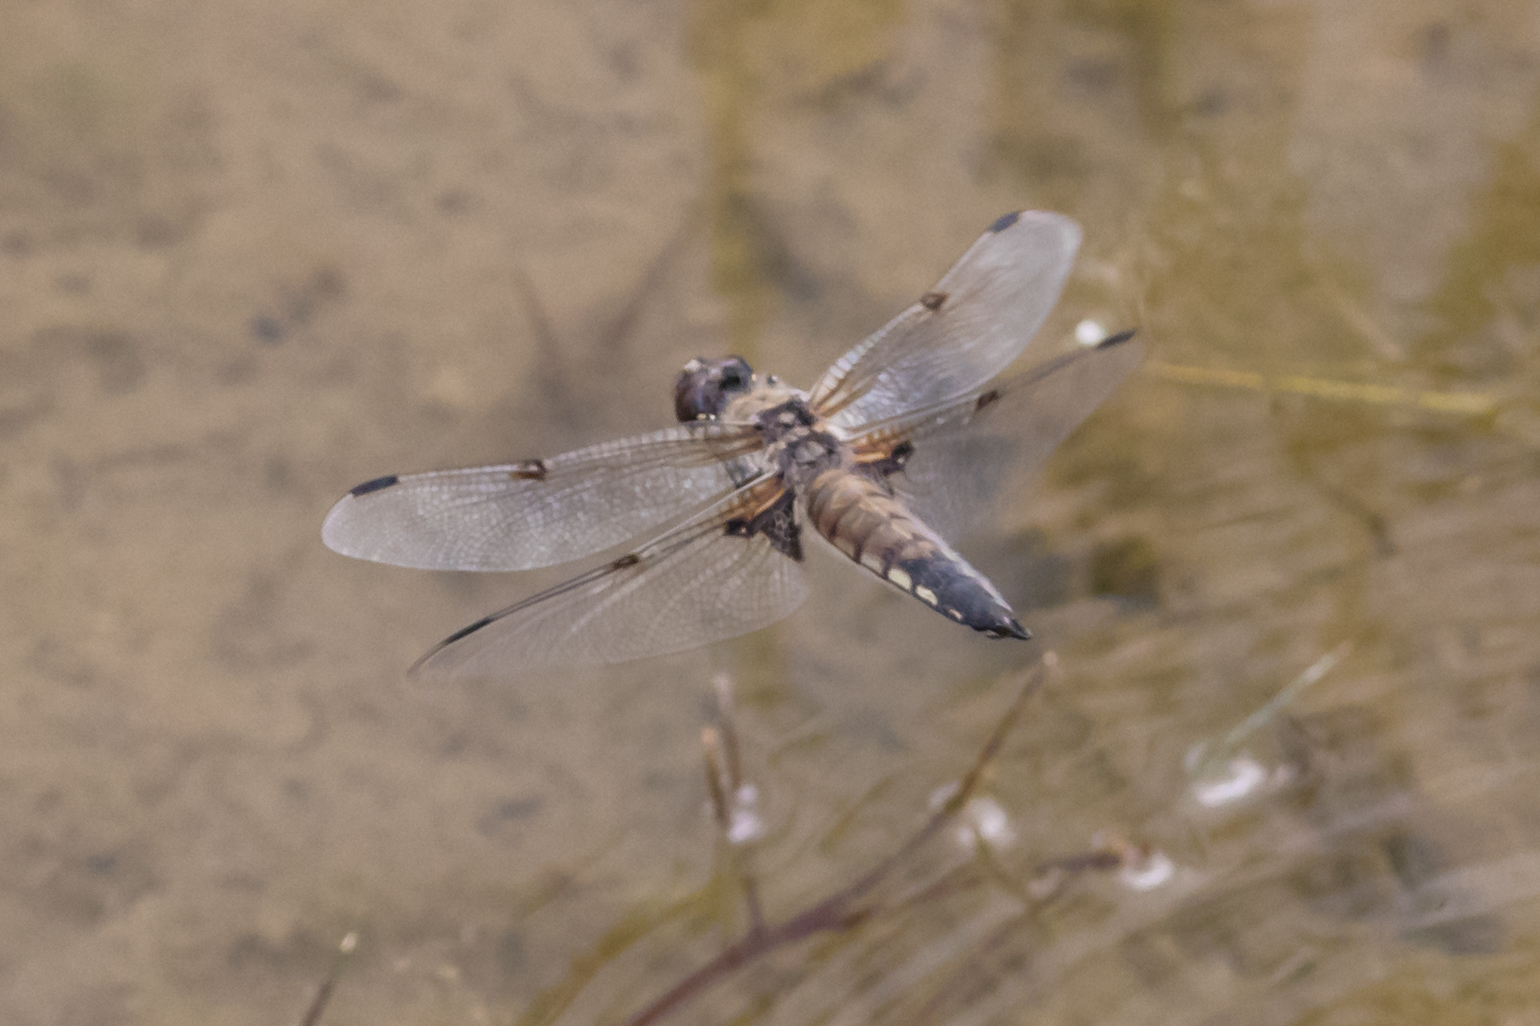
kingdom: Animalia
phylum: Arthropoda
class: Insecta
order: Odonata
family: Libellulidae
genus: Libellula
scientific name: Libellula quadrimaculata
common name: Four-spotted chaser
